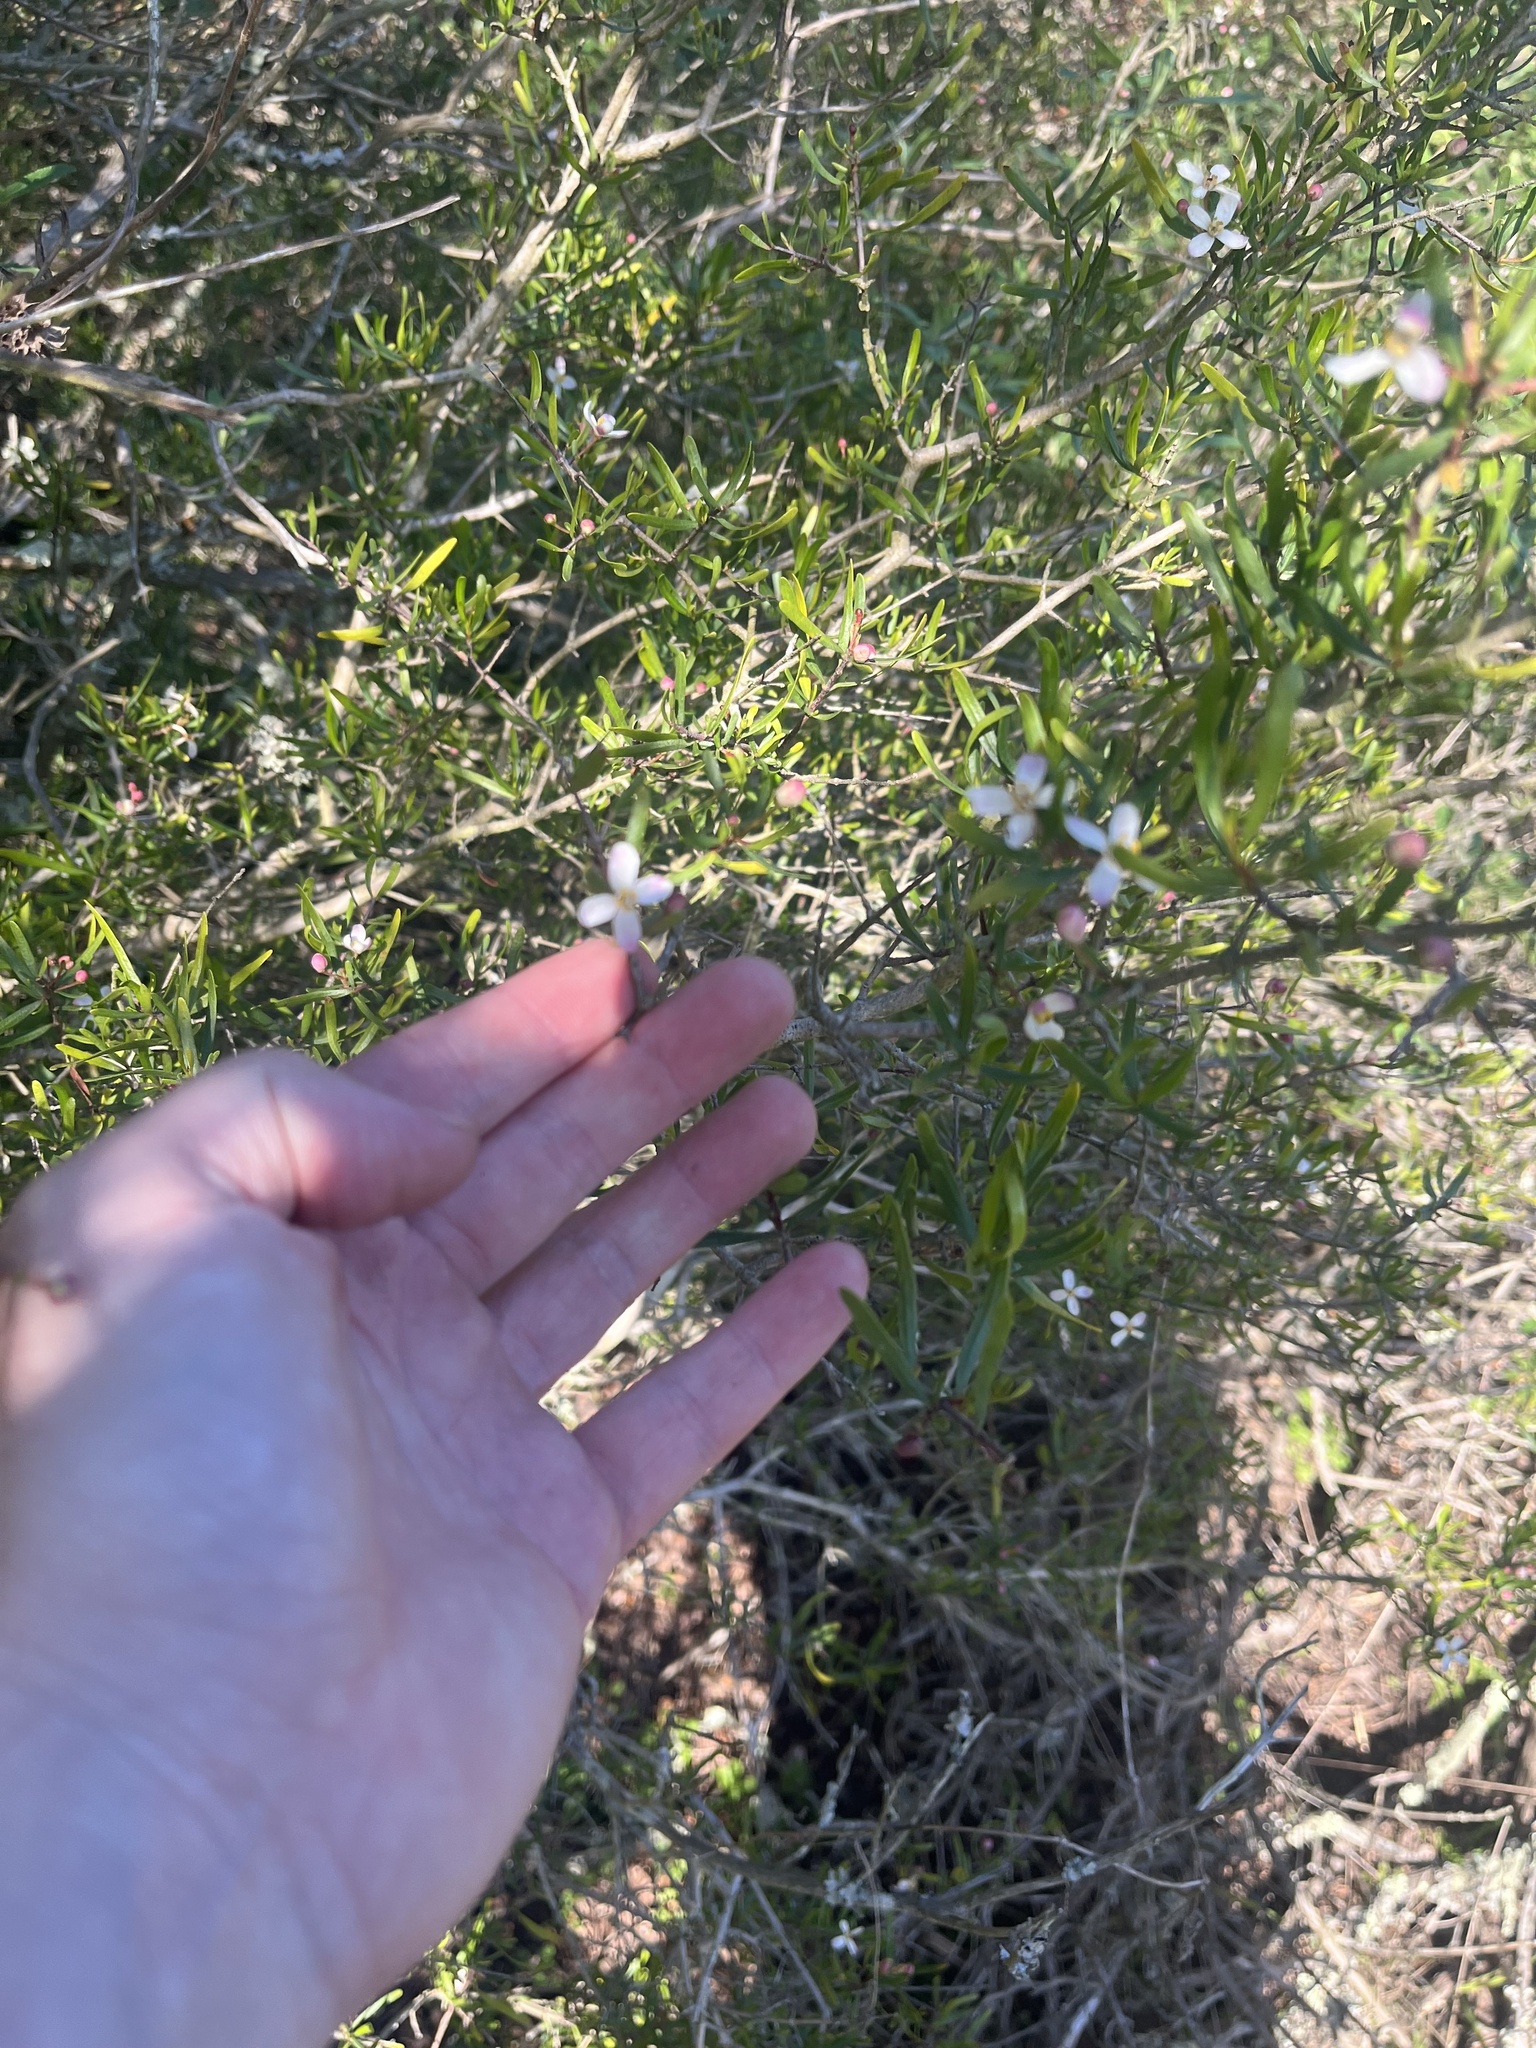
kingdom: Plantae
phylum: Tracheophyta
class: Magnoliopsida
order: Sapindales
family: Rutaceae
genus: Cneoridium
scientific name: Cneoridium dumosum
